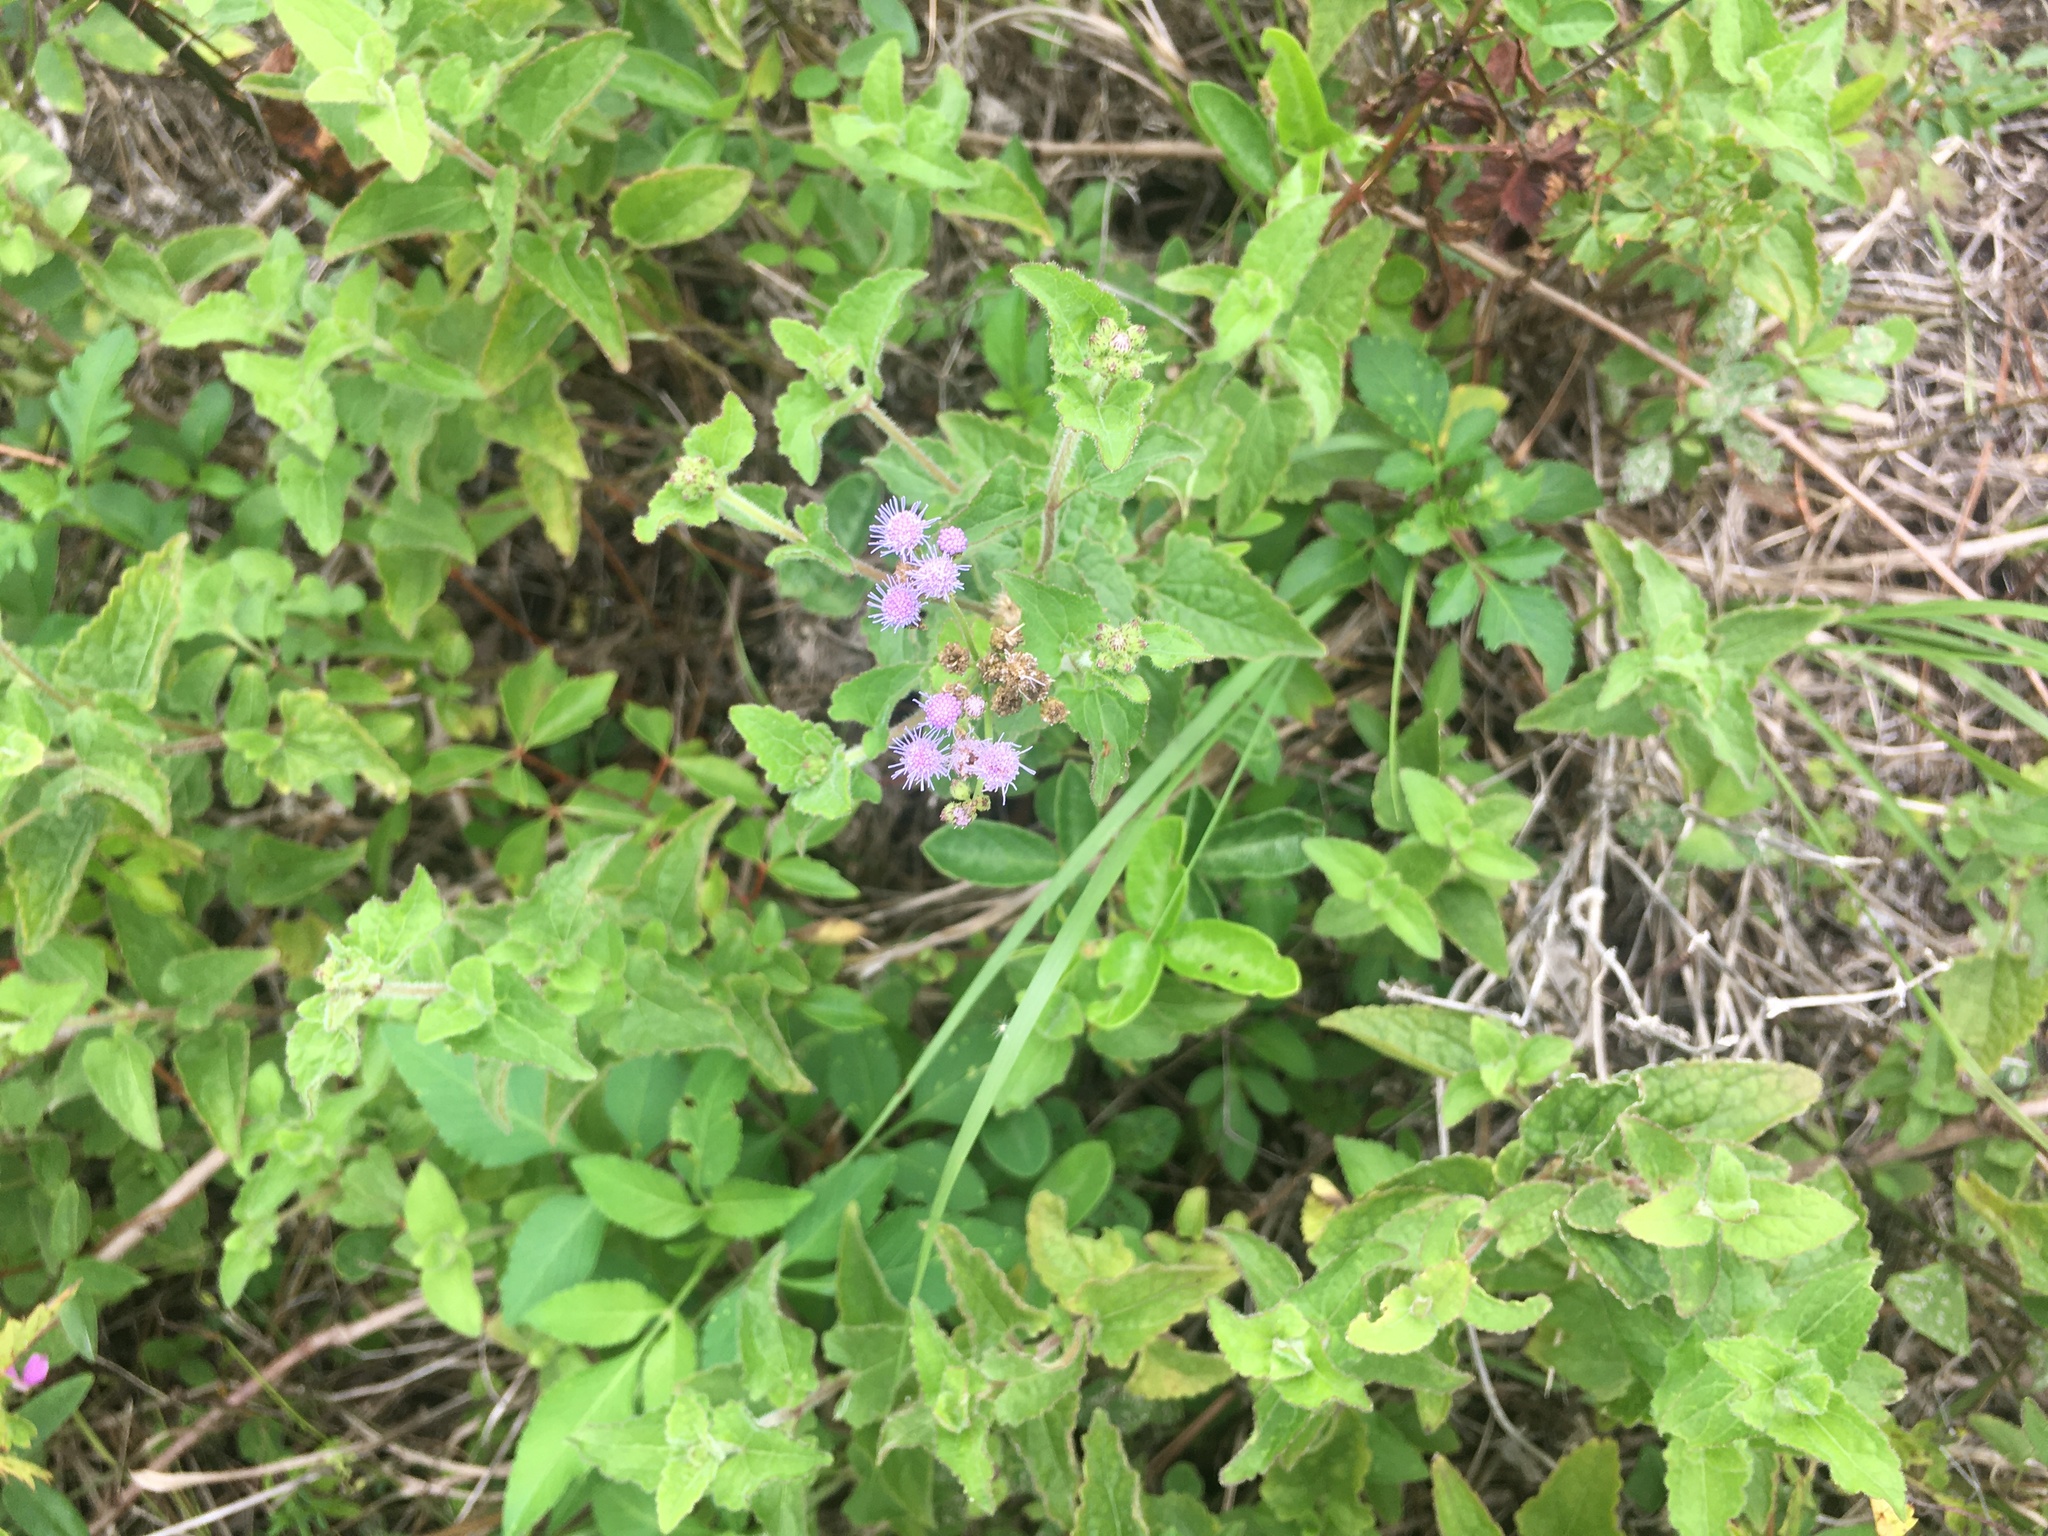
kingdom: Plantae
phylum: Tracheophyta
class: Magnoliopsida
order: Asterales
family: Asteraceae
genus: Conoclinium
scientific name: Conoclinium coelestinum
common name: Blue mistflower
